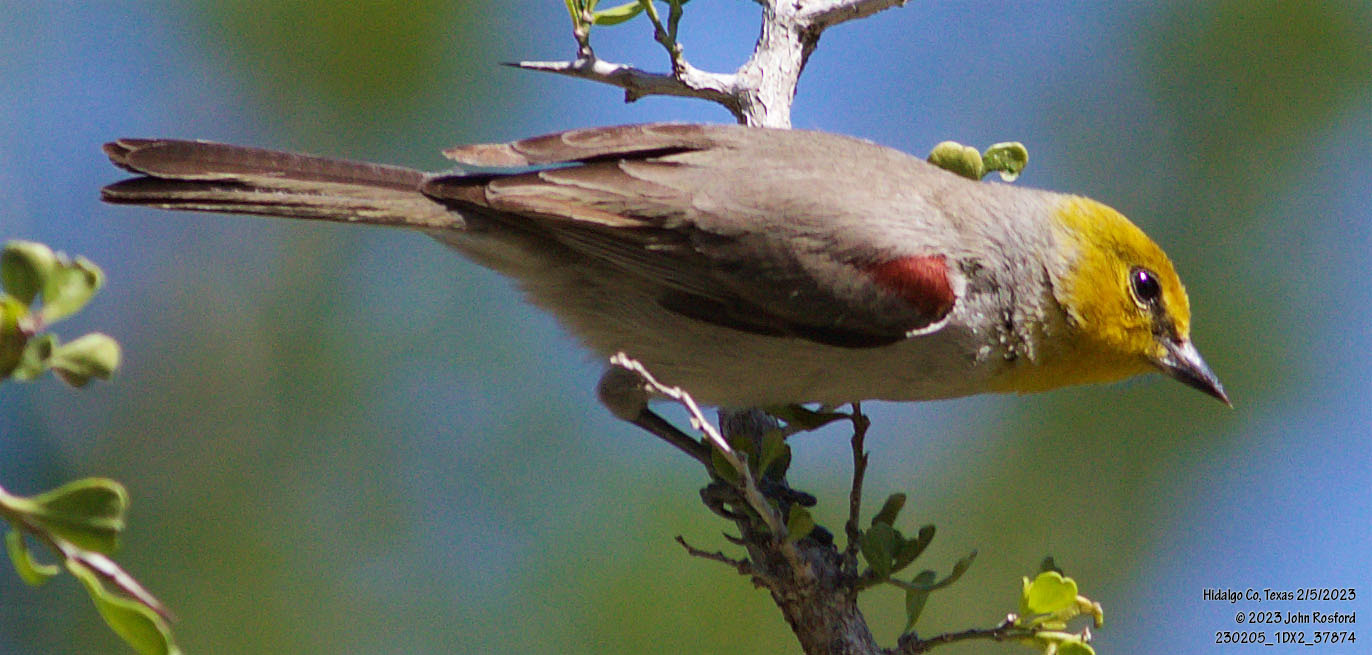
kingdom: Animalia
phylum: Chordata
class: Aves
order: Passeriformes
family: Remizidae
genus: Auriparus
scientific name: Auriparus flaviceps
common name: Verdin
